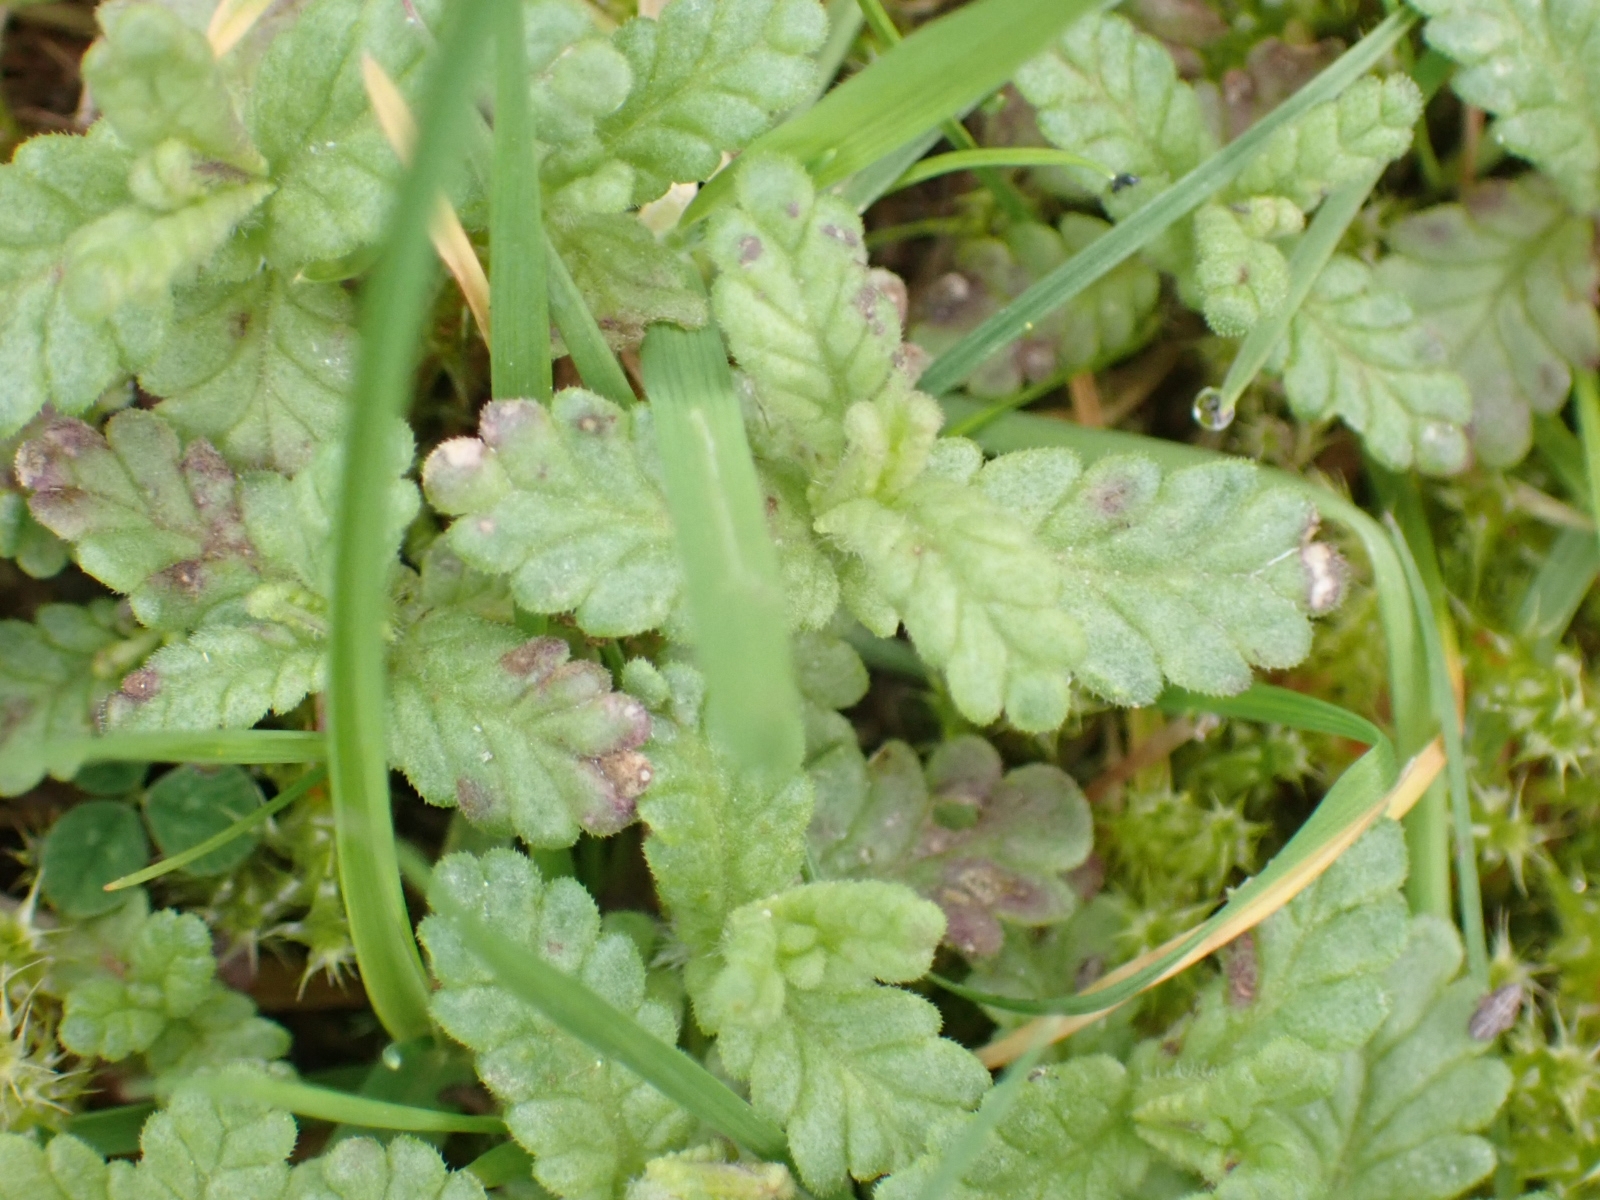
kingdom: Plantae
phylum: Tracheophyta
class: Magnoliopsida
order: Lamiales
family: Orobanchaceae
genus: Rhinanthus
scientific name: Rhinanthus minor
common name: Yellow-rattle
